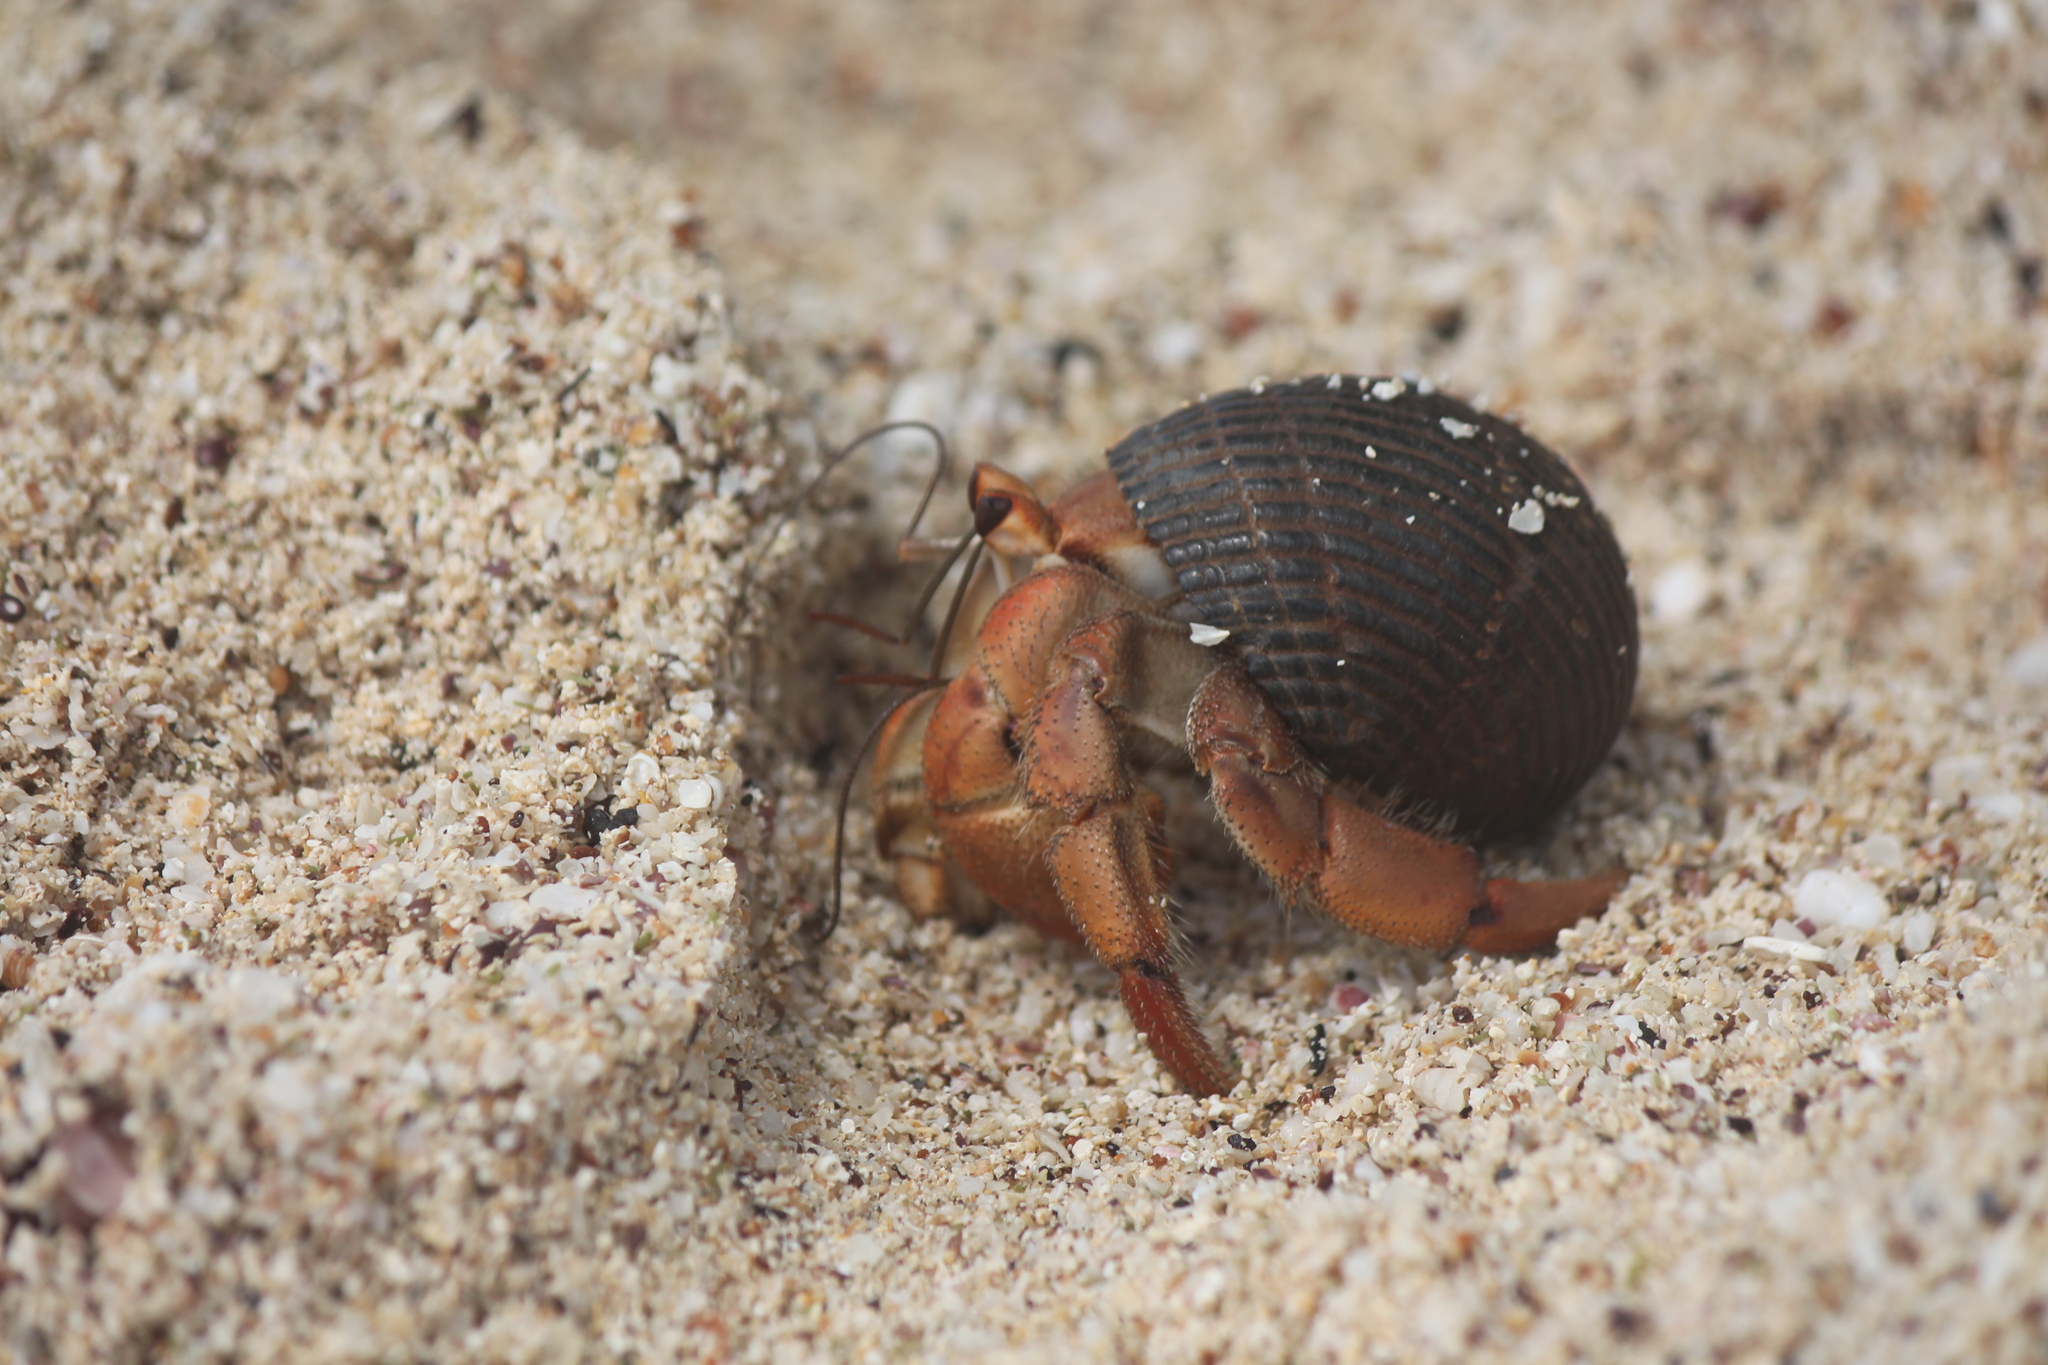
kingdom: Animalia
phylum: Arthropoda
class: Malacostraca
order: Decapoda
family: Coenobitidae
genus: Coenobita
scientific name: Coenobita compressus
